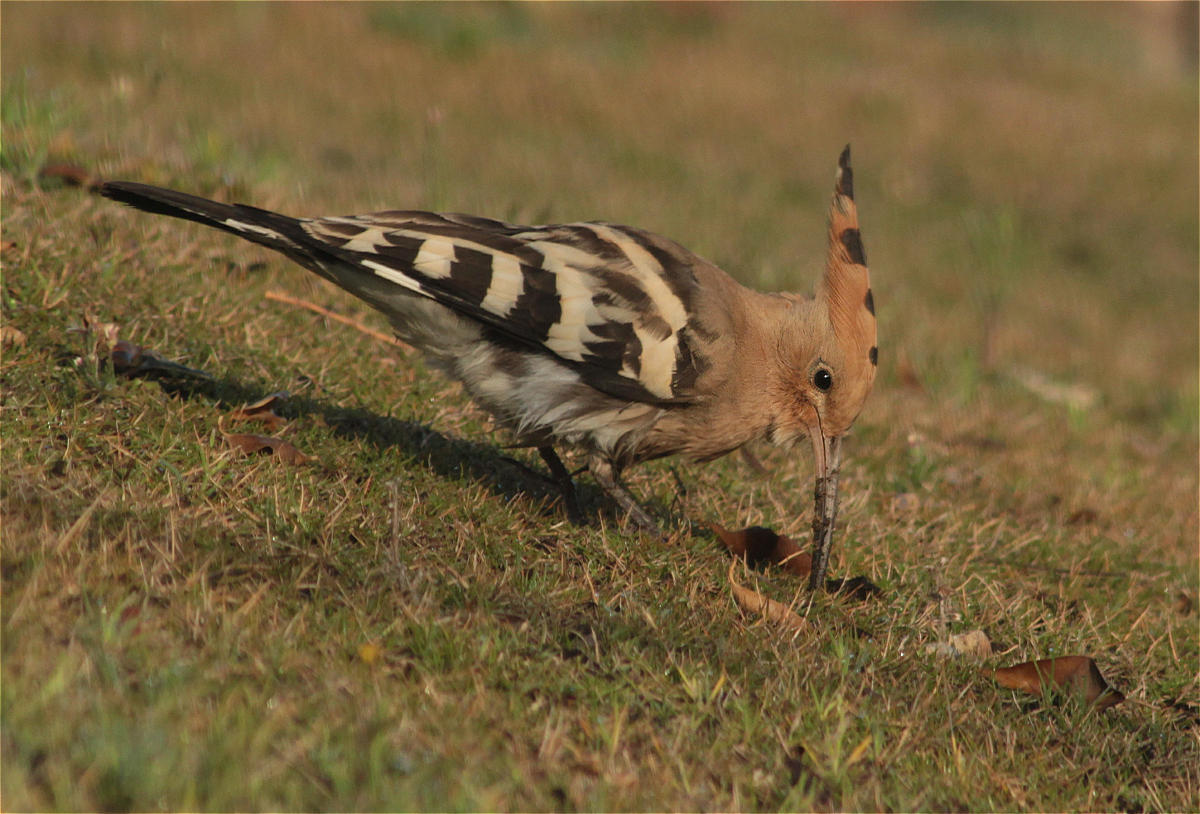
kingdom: Animalia
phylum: Chordata
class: Aves
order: Bucerotiformes
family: Upupidae
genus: Upupa
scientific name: Upupa epops
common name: Eurasian hoopoe
